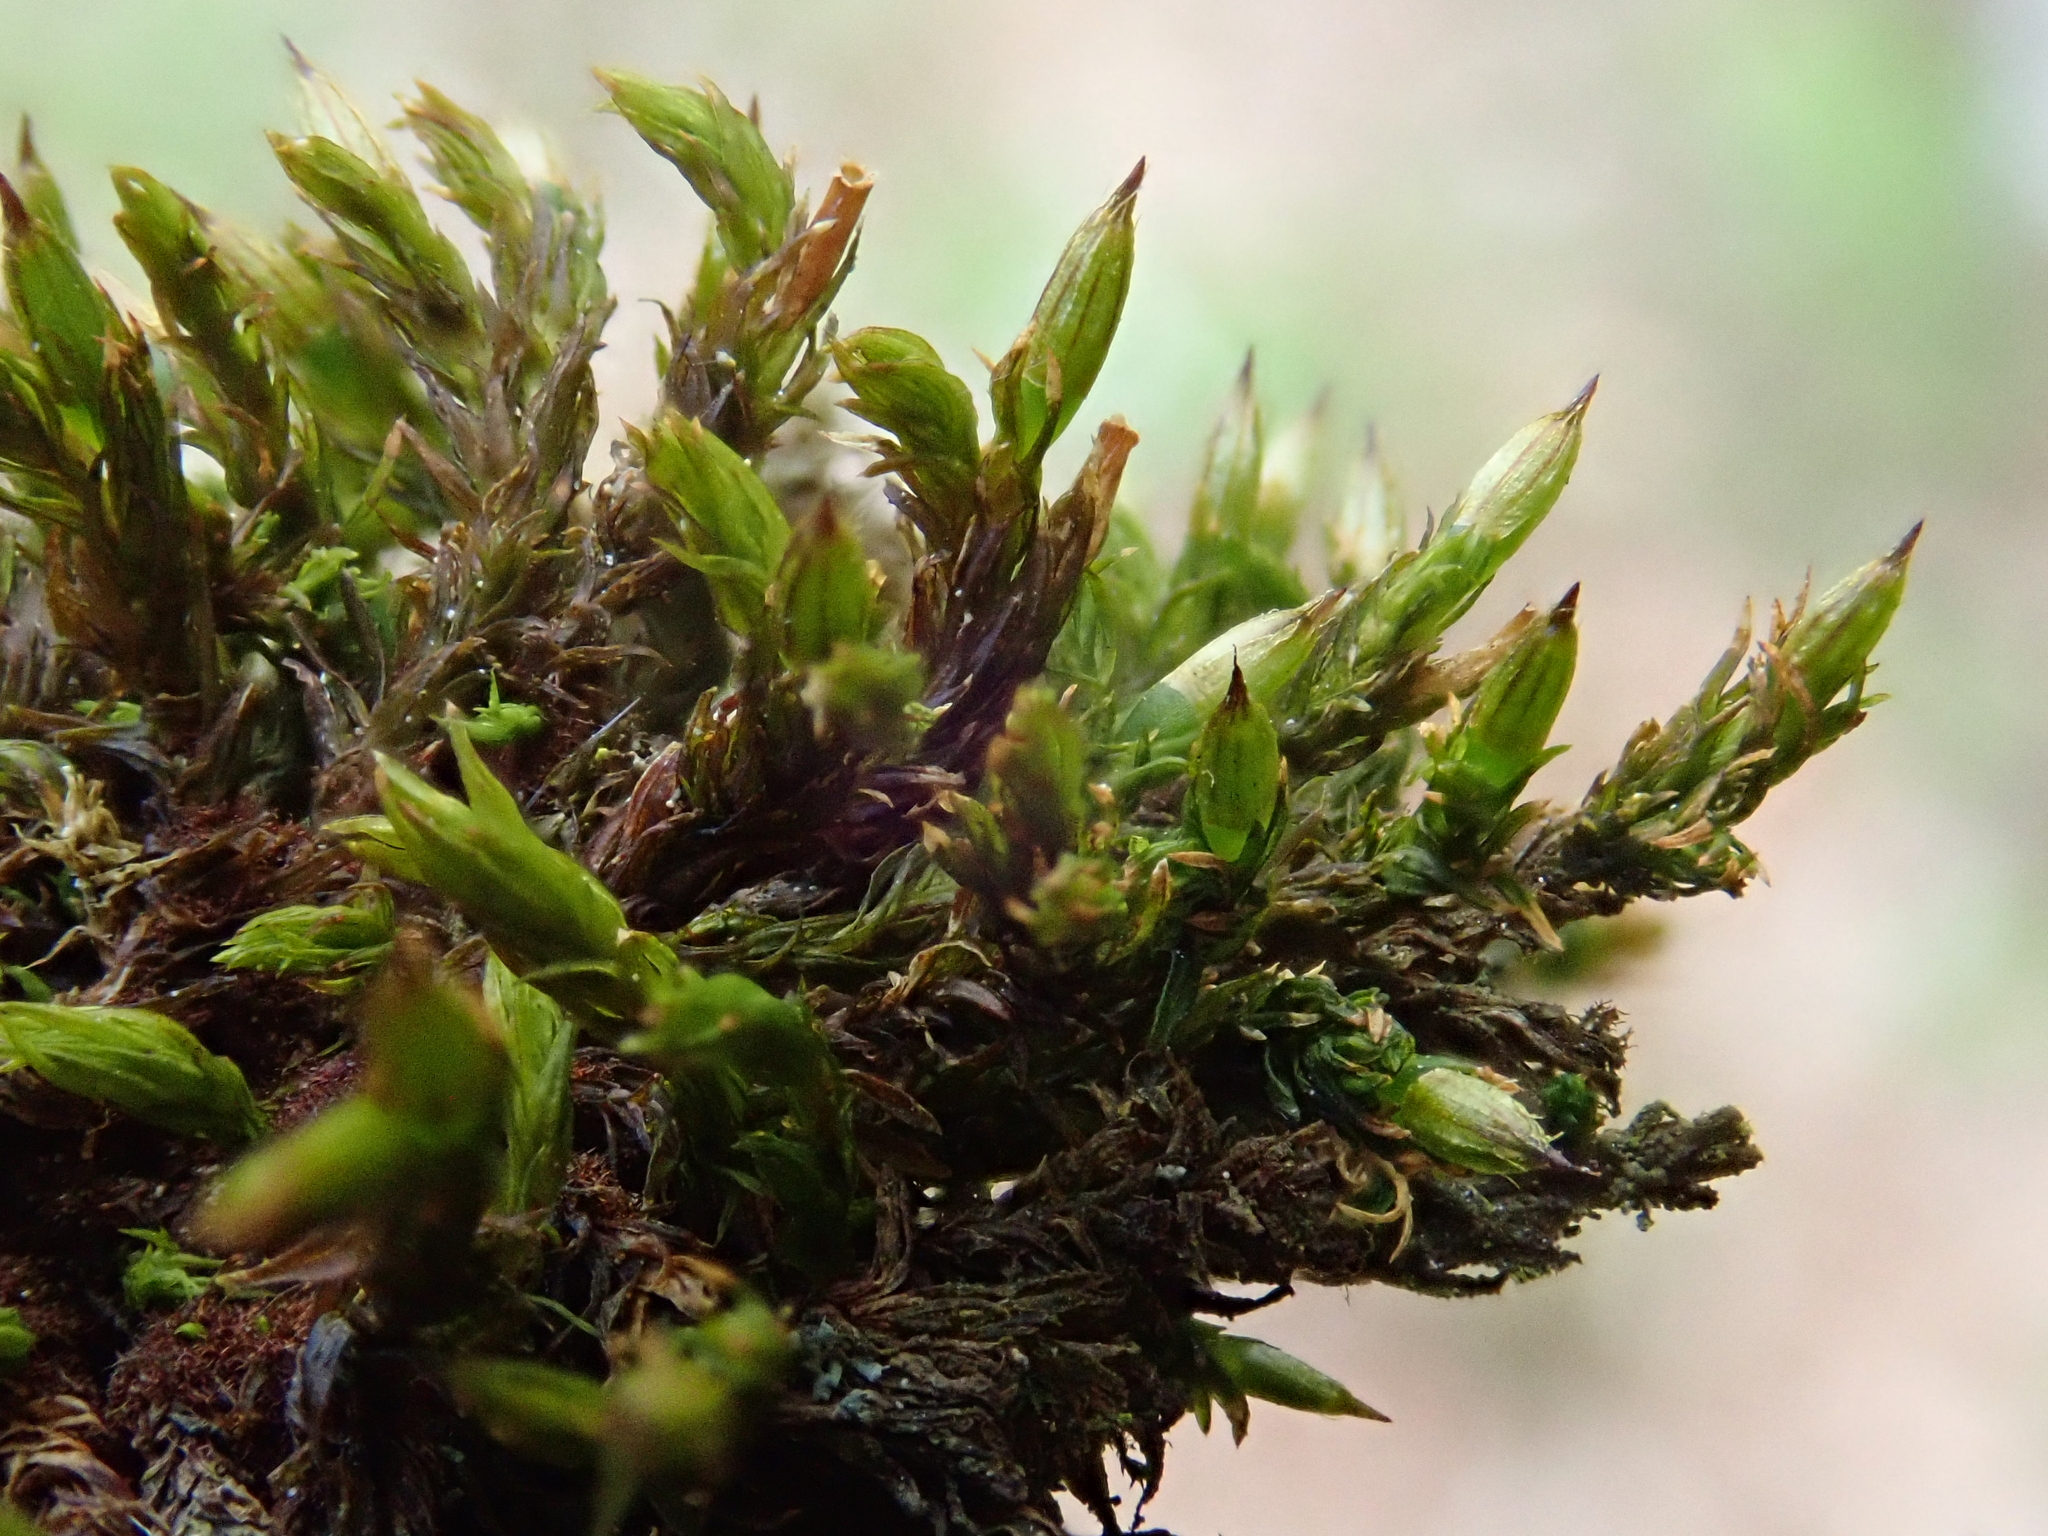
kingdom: Plantae
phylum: Bryophyta
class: Bryopsida
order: Orthotrichales
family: Orthotrichaceae
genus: Lewinskya
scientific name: Lewinskya affinis
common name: Wood bristle-moss
